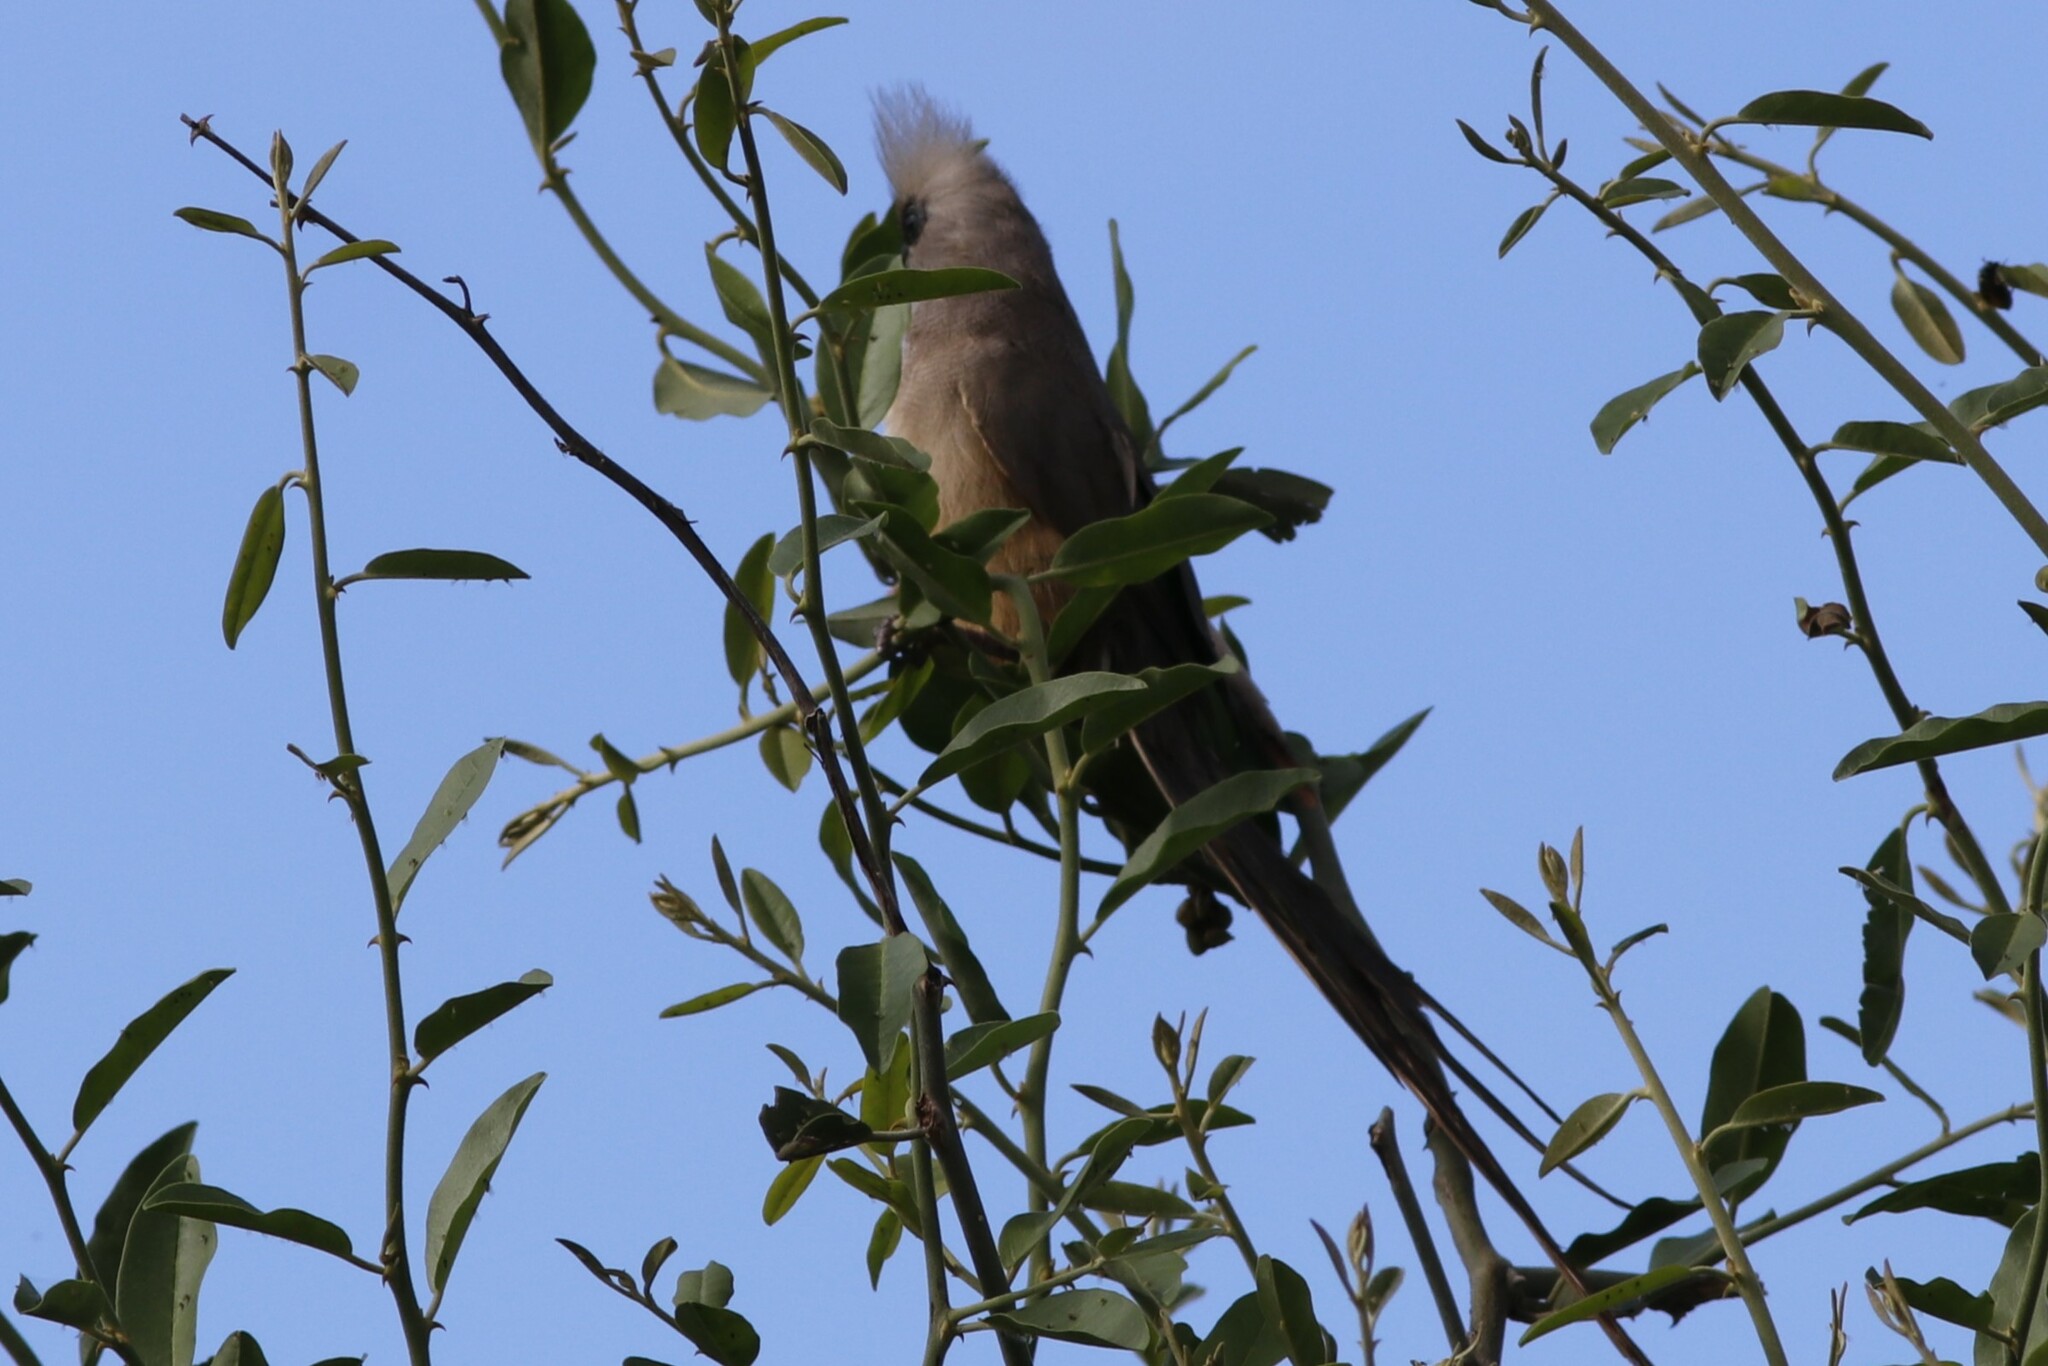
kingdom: Animalia
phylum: Chordata
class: Aves
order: Coliiformes
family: Coliidae
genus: Colius
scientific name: Colius striatus
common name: Speckled mousebird
